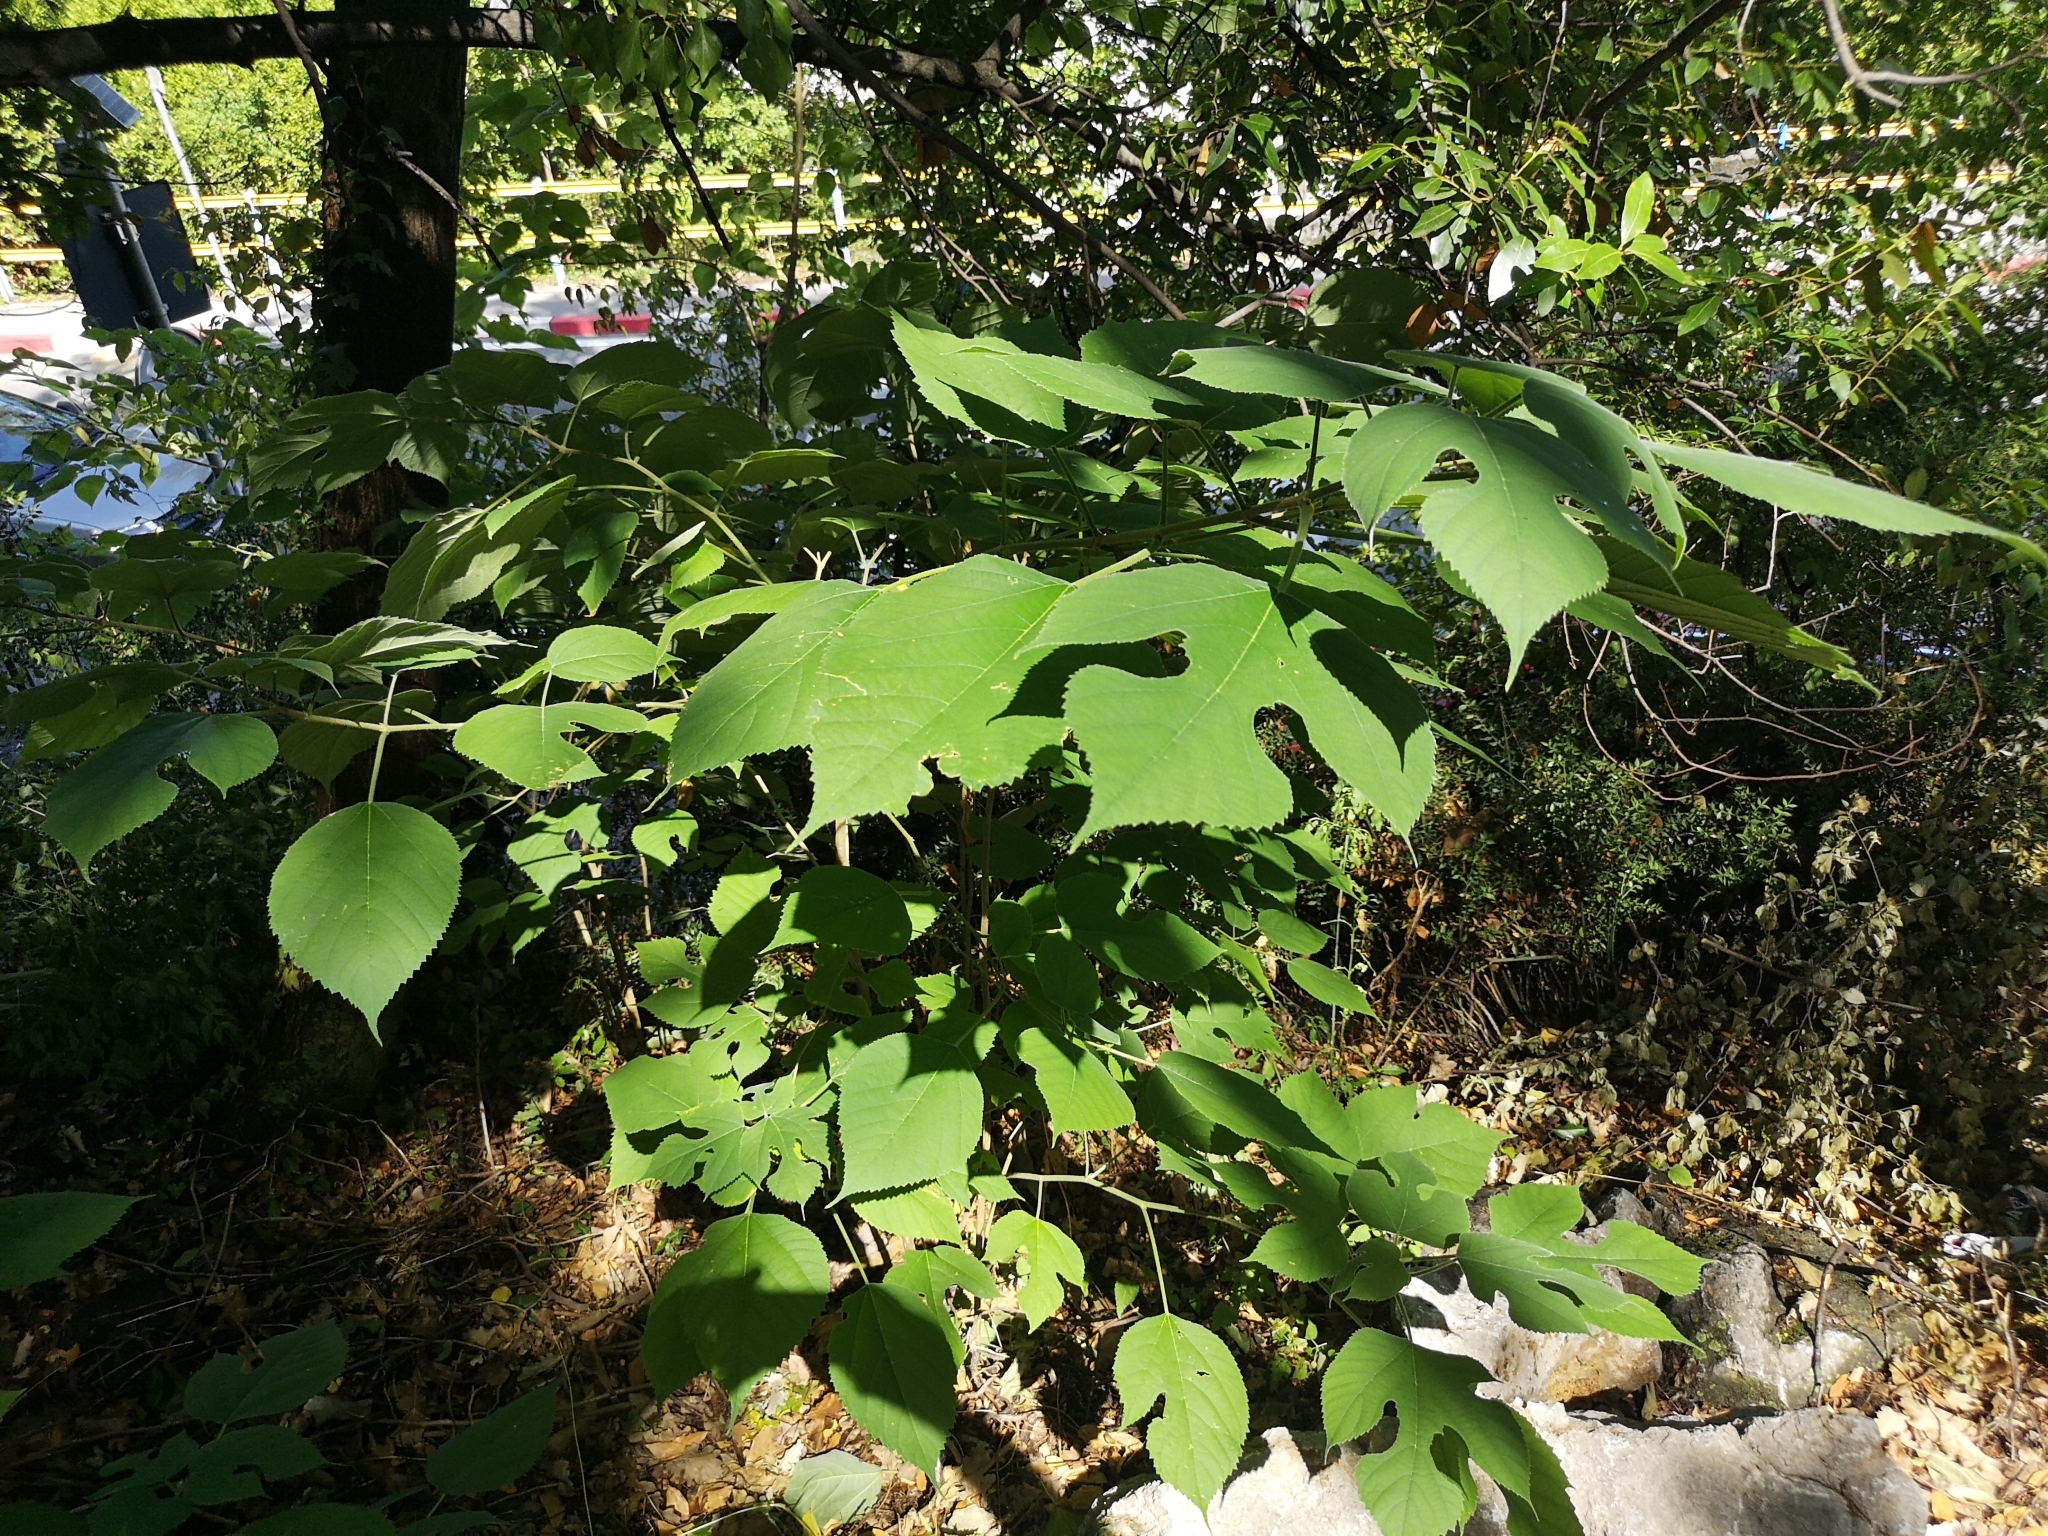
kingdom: Plantae
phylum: Tracheophyta
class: Magnoliopsida
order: Rosales
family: Moraceae
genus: Broussonetia
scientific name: Broussonetia papyrifera
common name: Paper mulberry
